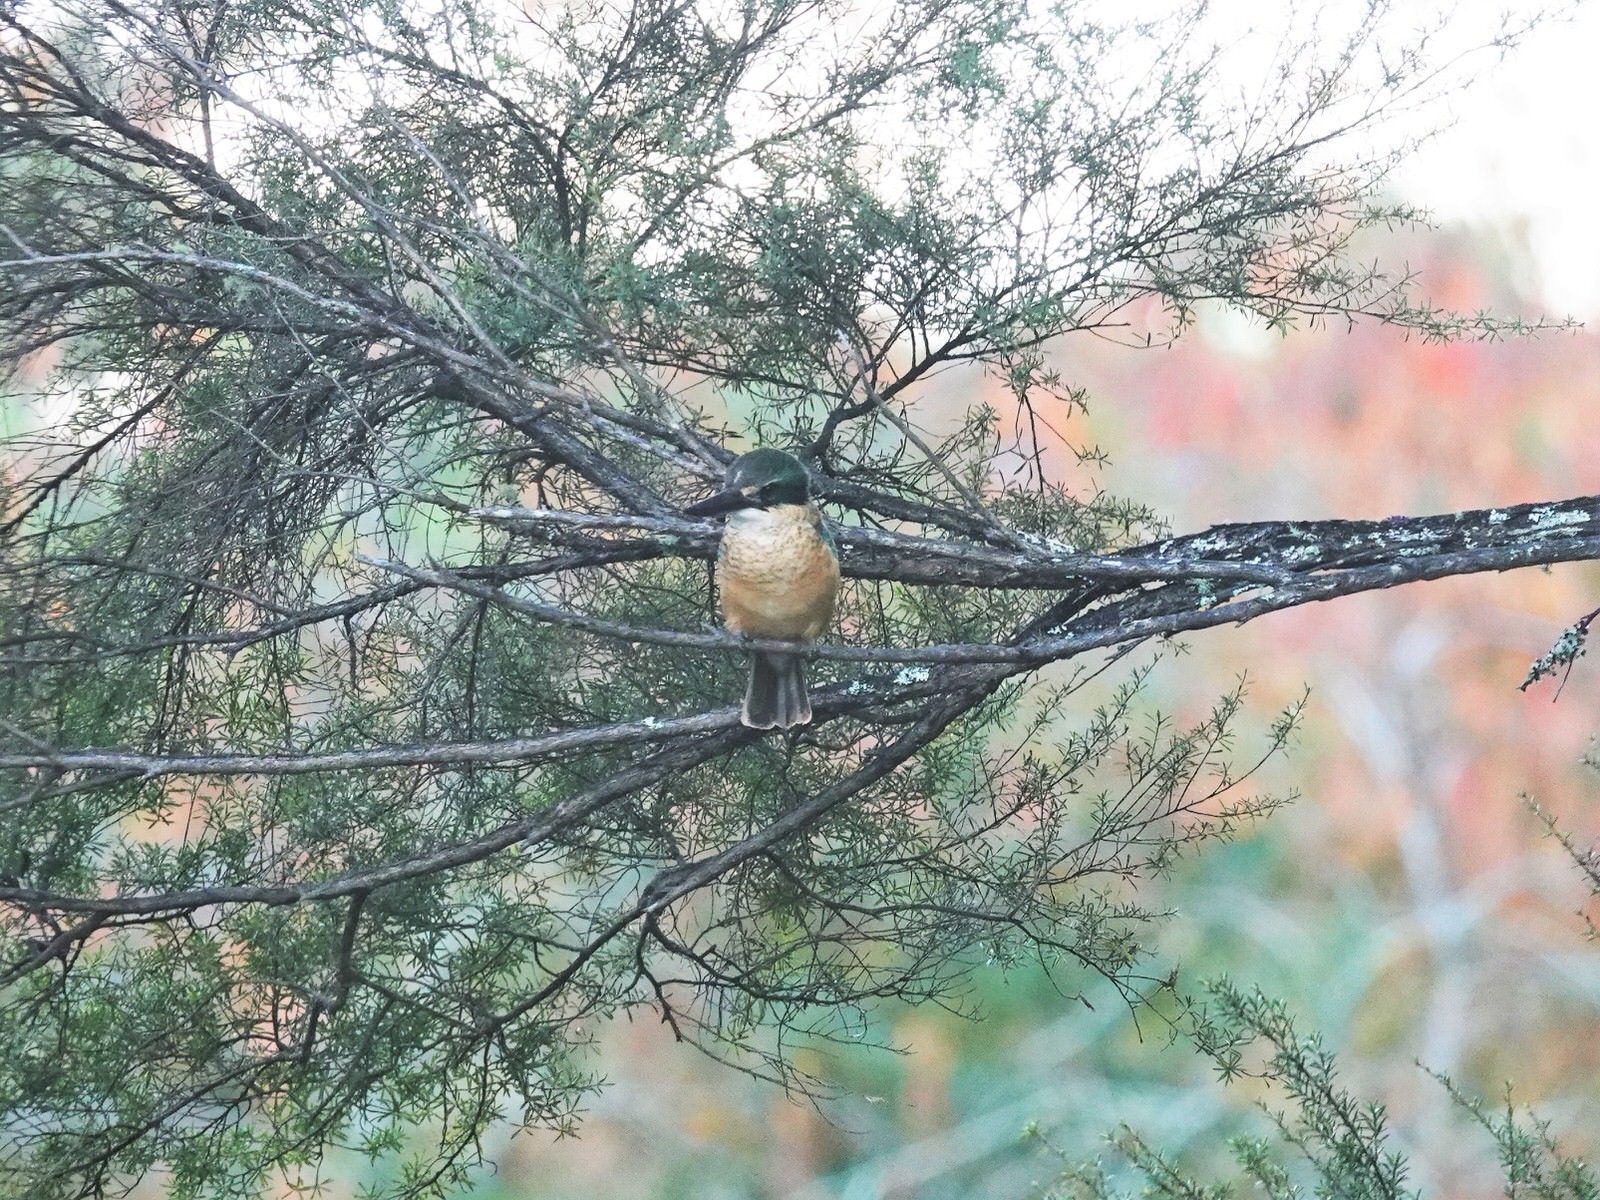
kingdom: Animalia
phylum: Chordata
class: Aves
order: Coraciiformes
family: Alcedinidae
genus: Todiramphus
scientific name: Todiramphus sanctus
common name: Sacred kingfisher
